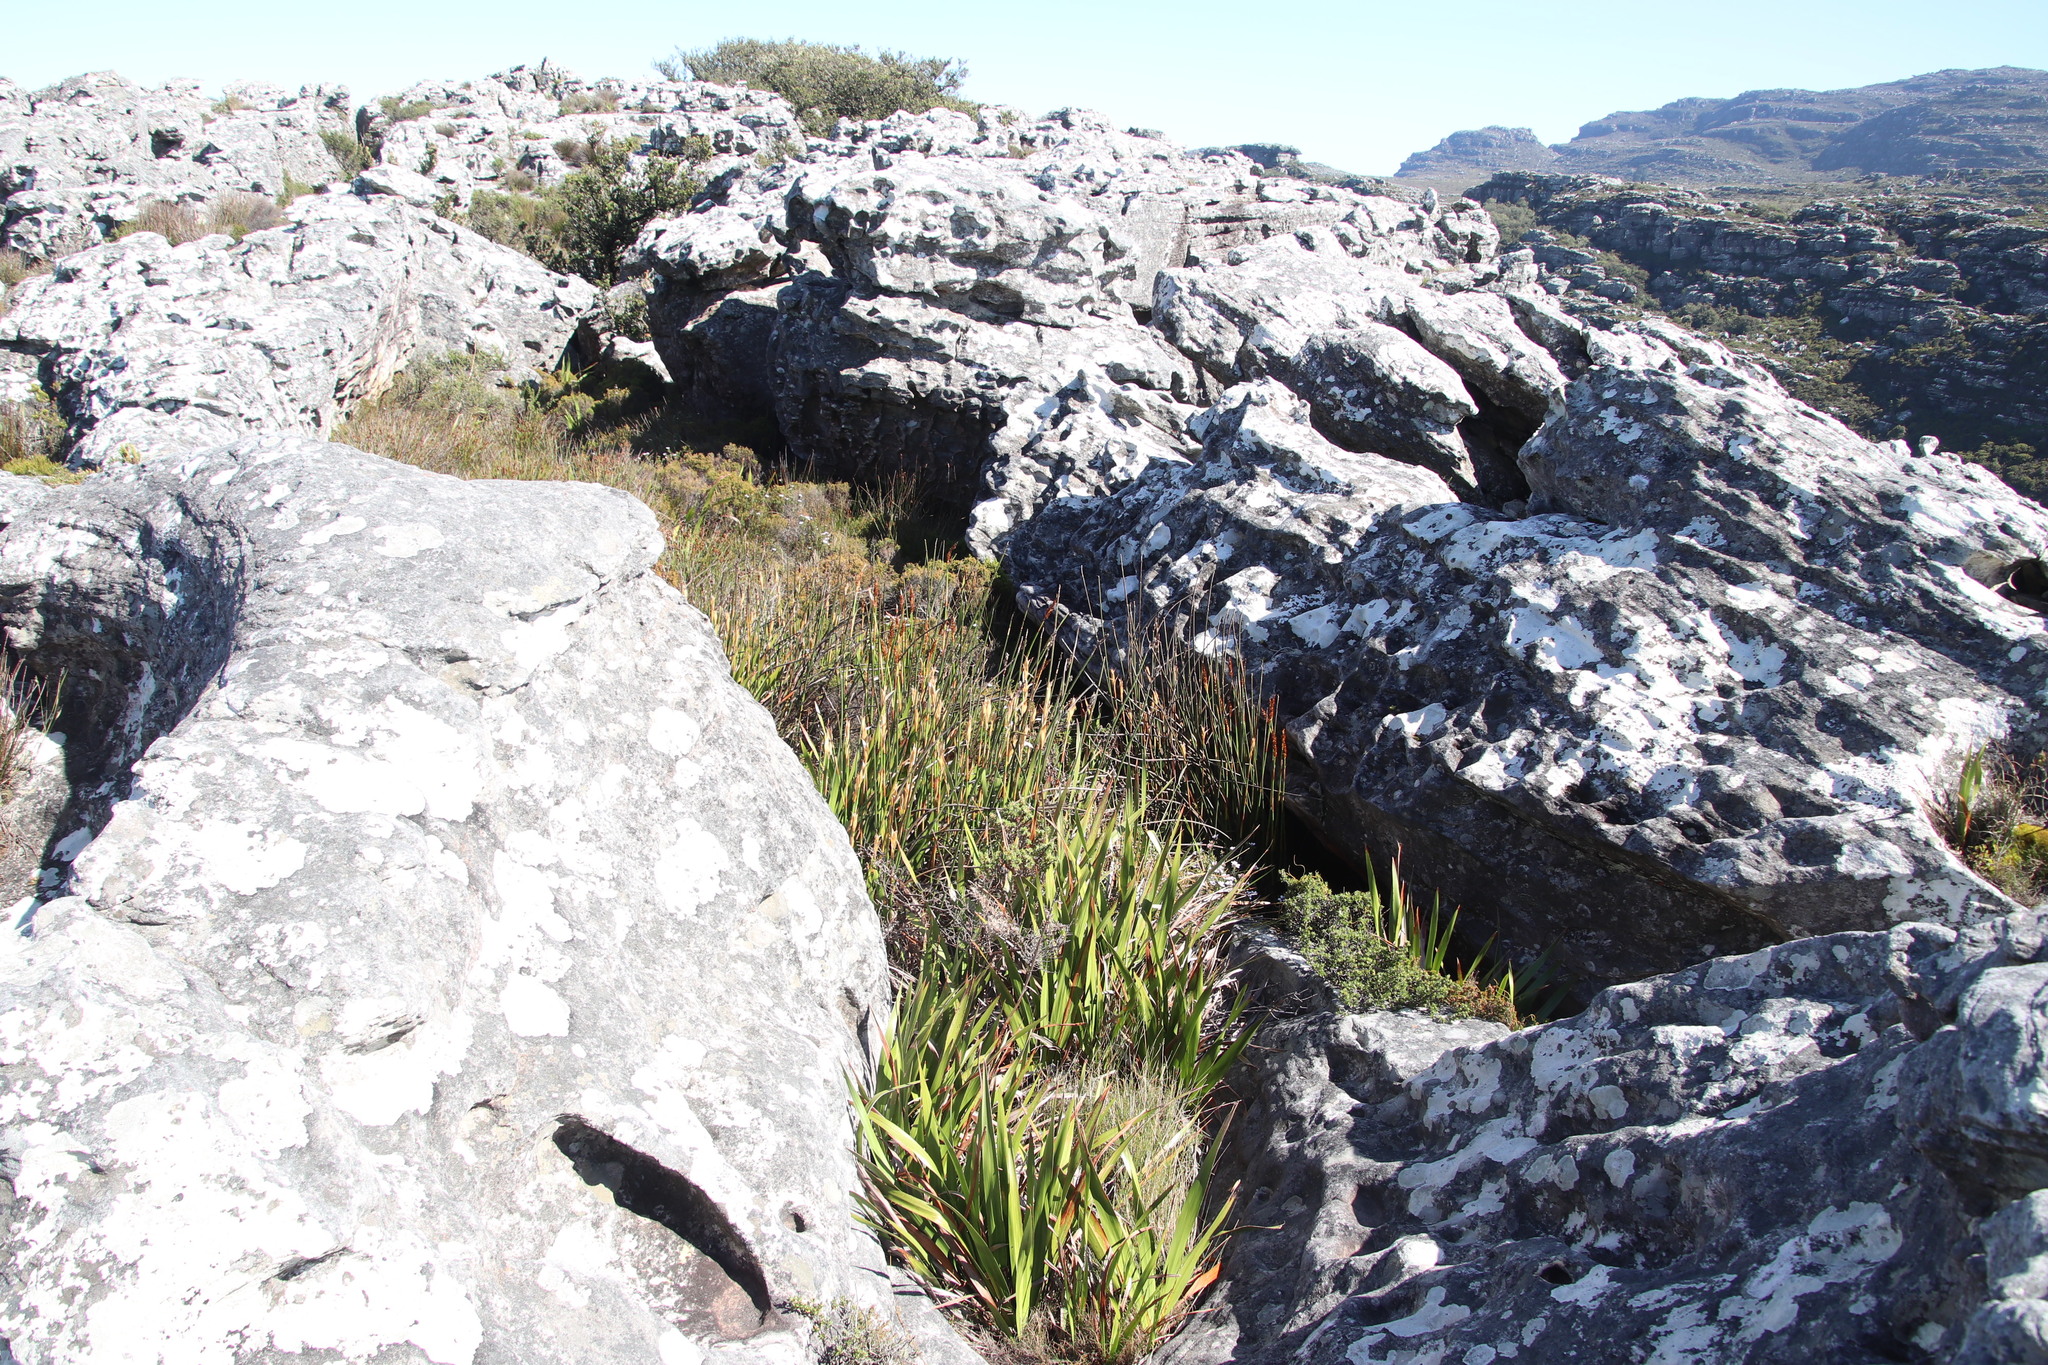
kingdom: Plantae
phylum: Tracheophyta
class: Liliopsida
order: Poales
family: Restionaceae
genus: Elegia
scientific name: Elegia mucronata
